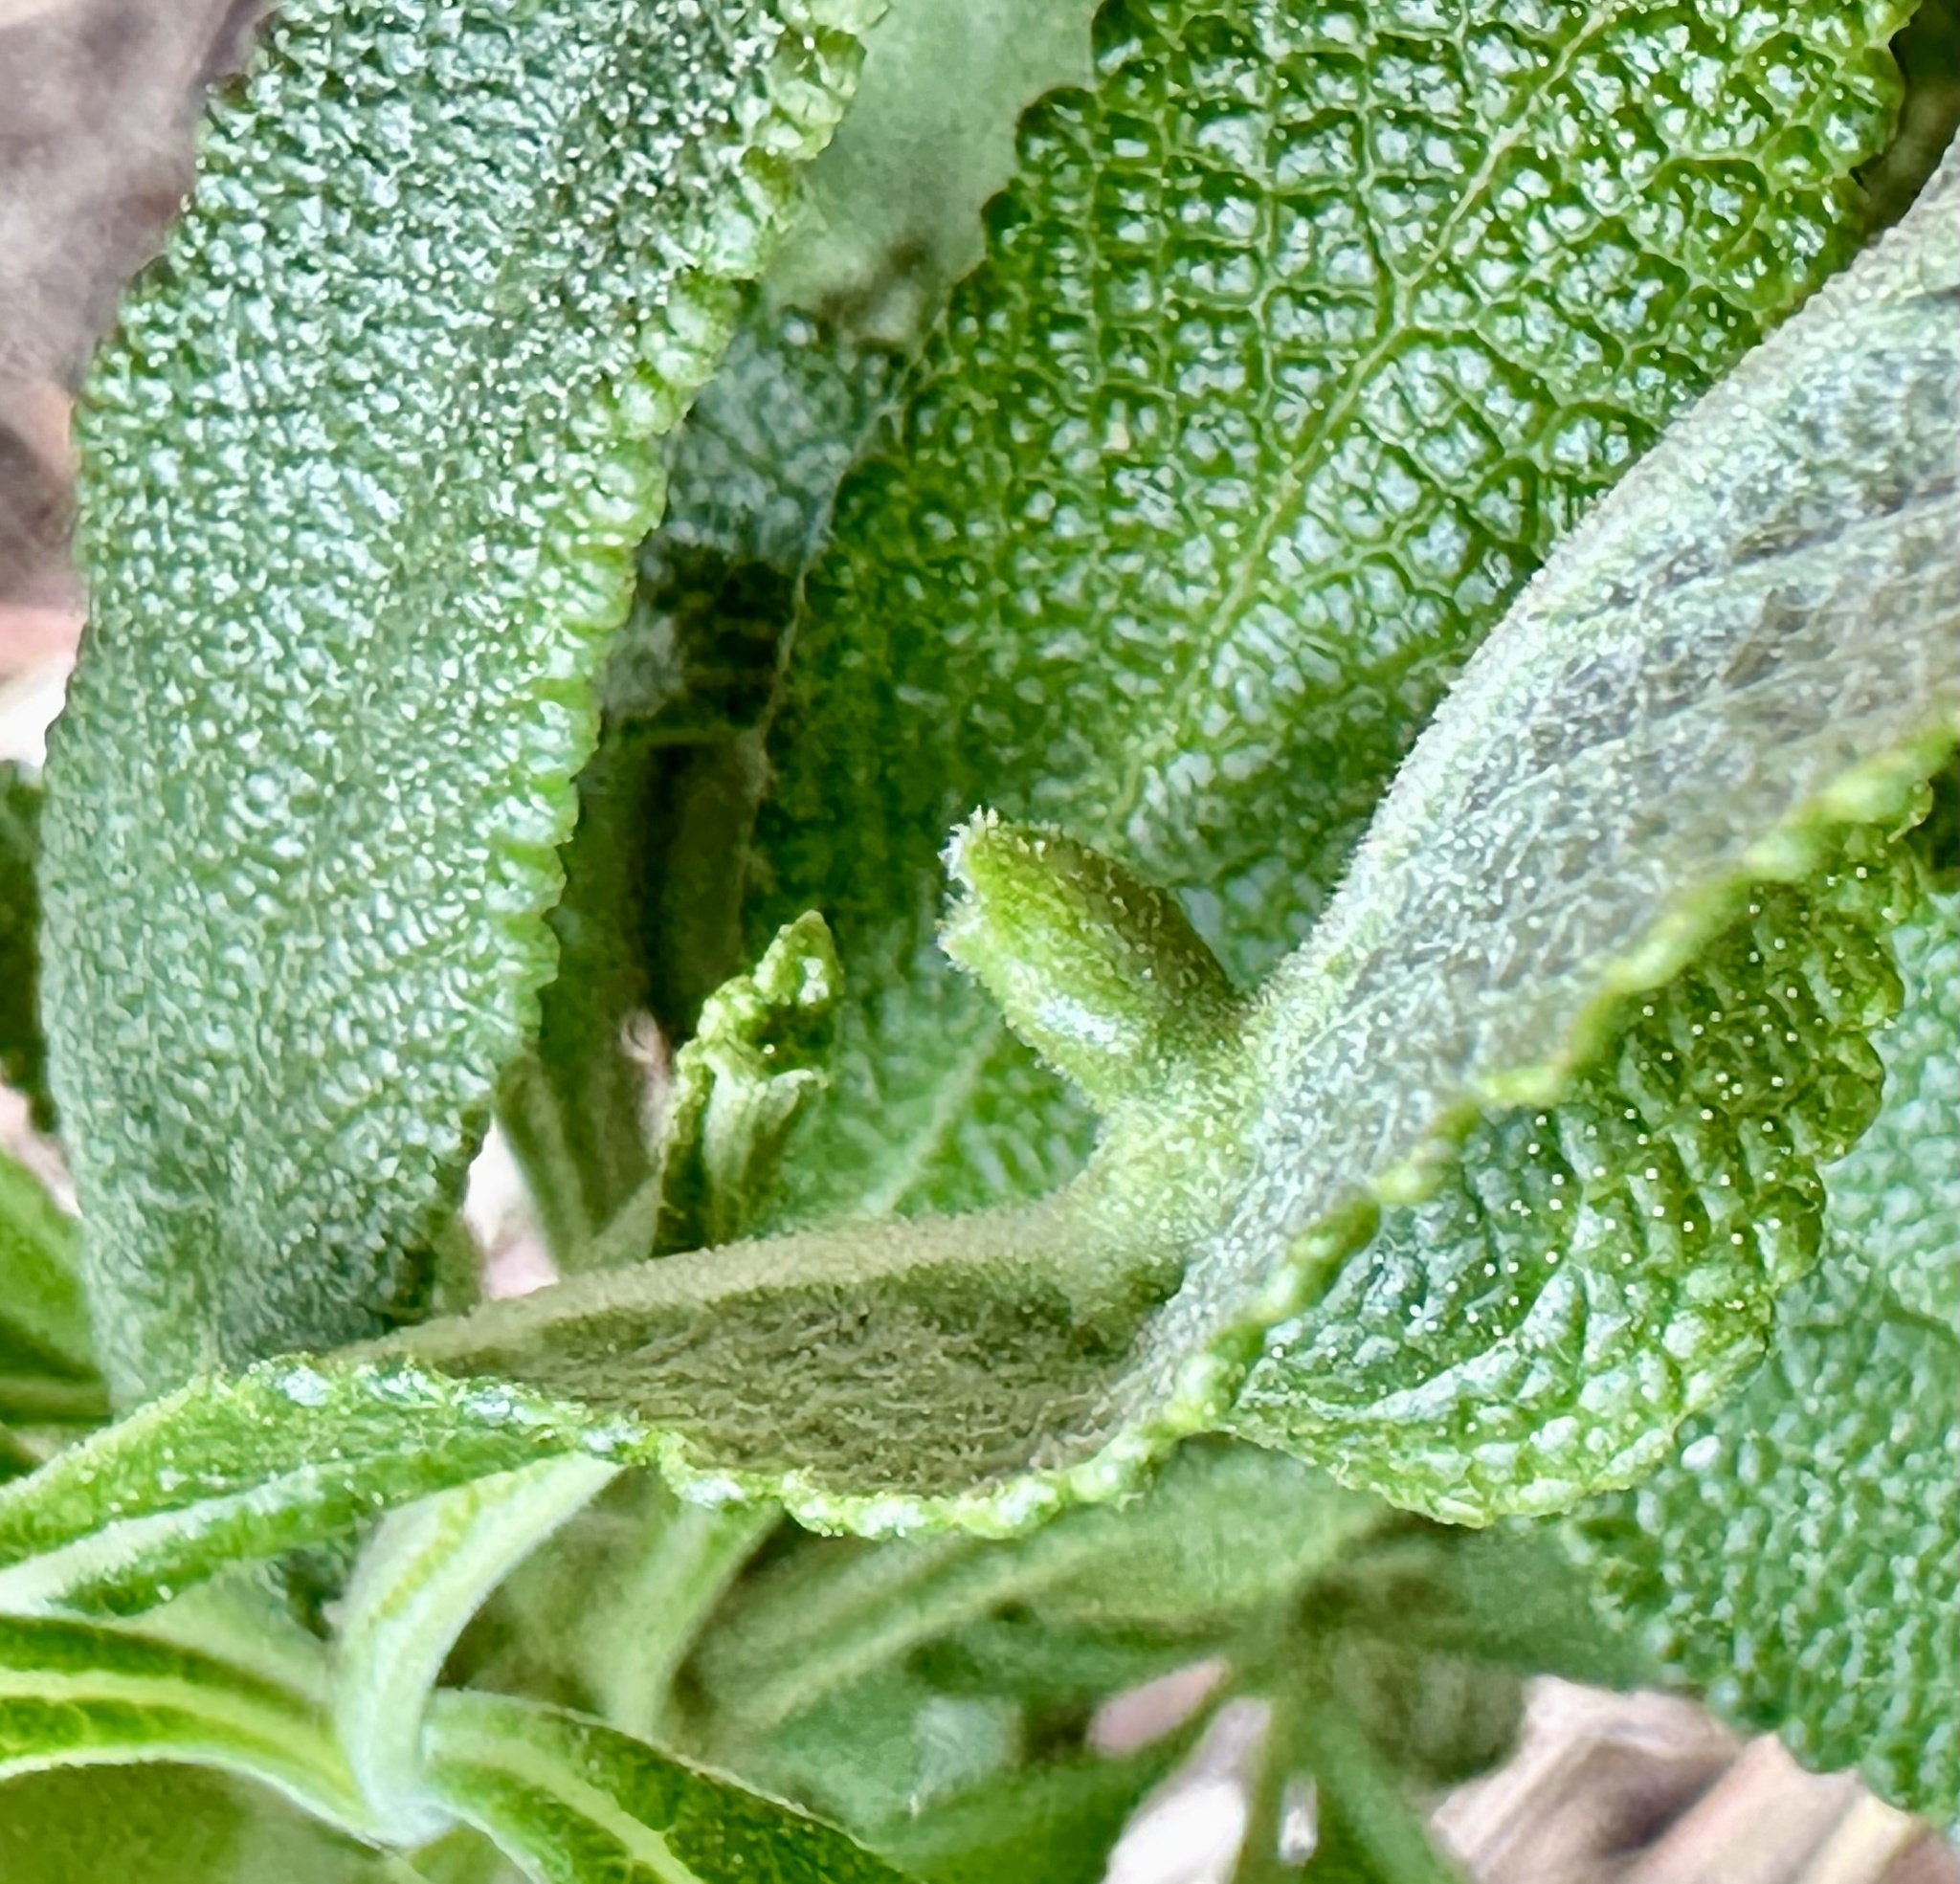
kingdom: Animalia
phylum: Arthropoda
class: Insecta
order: Diptera
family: Cecidomyiidae
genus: Rhopalomyia
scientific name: Rhopalomyia salviae
